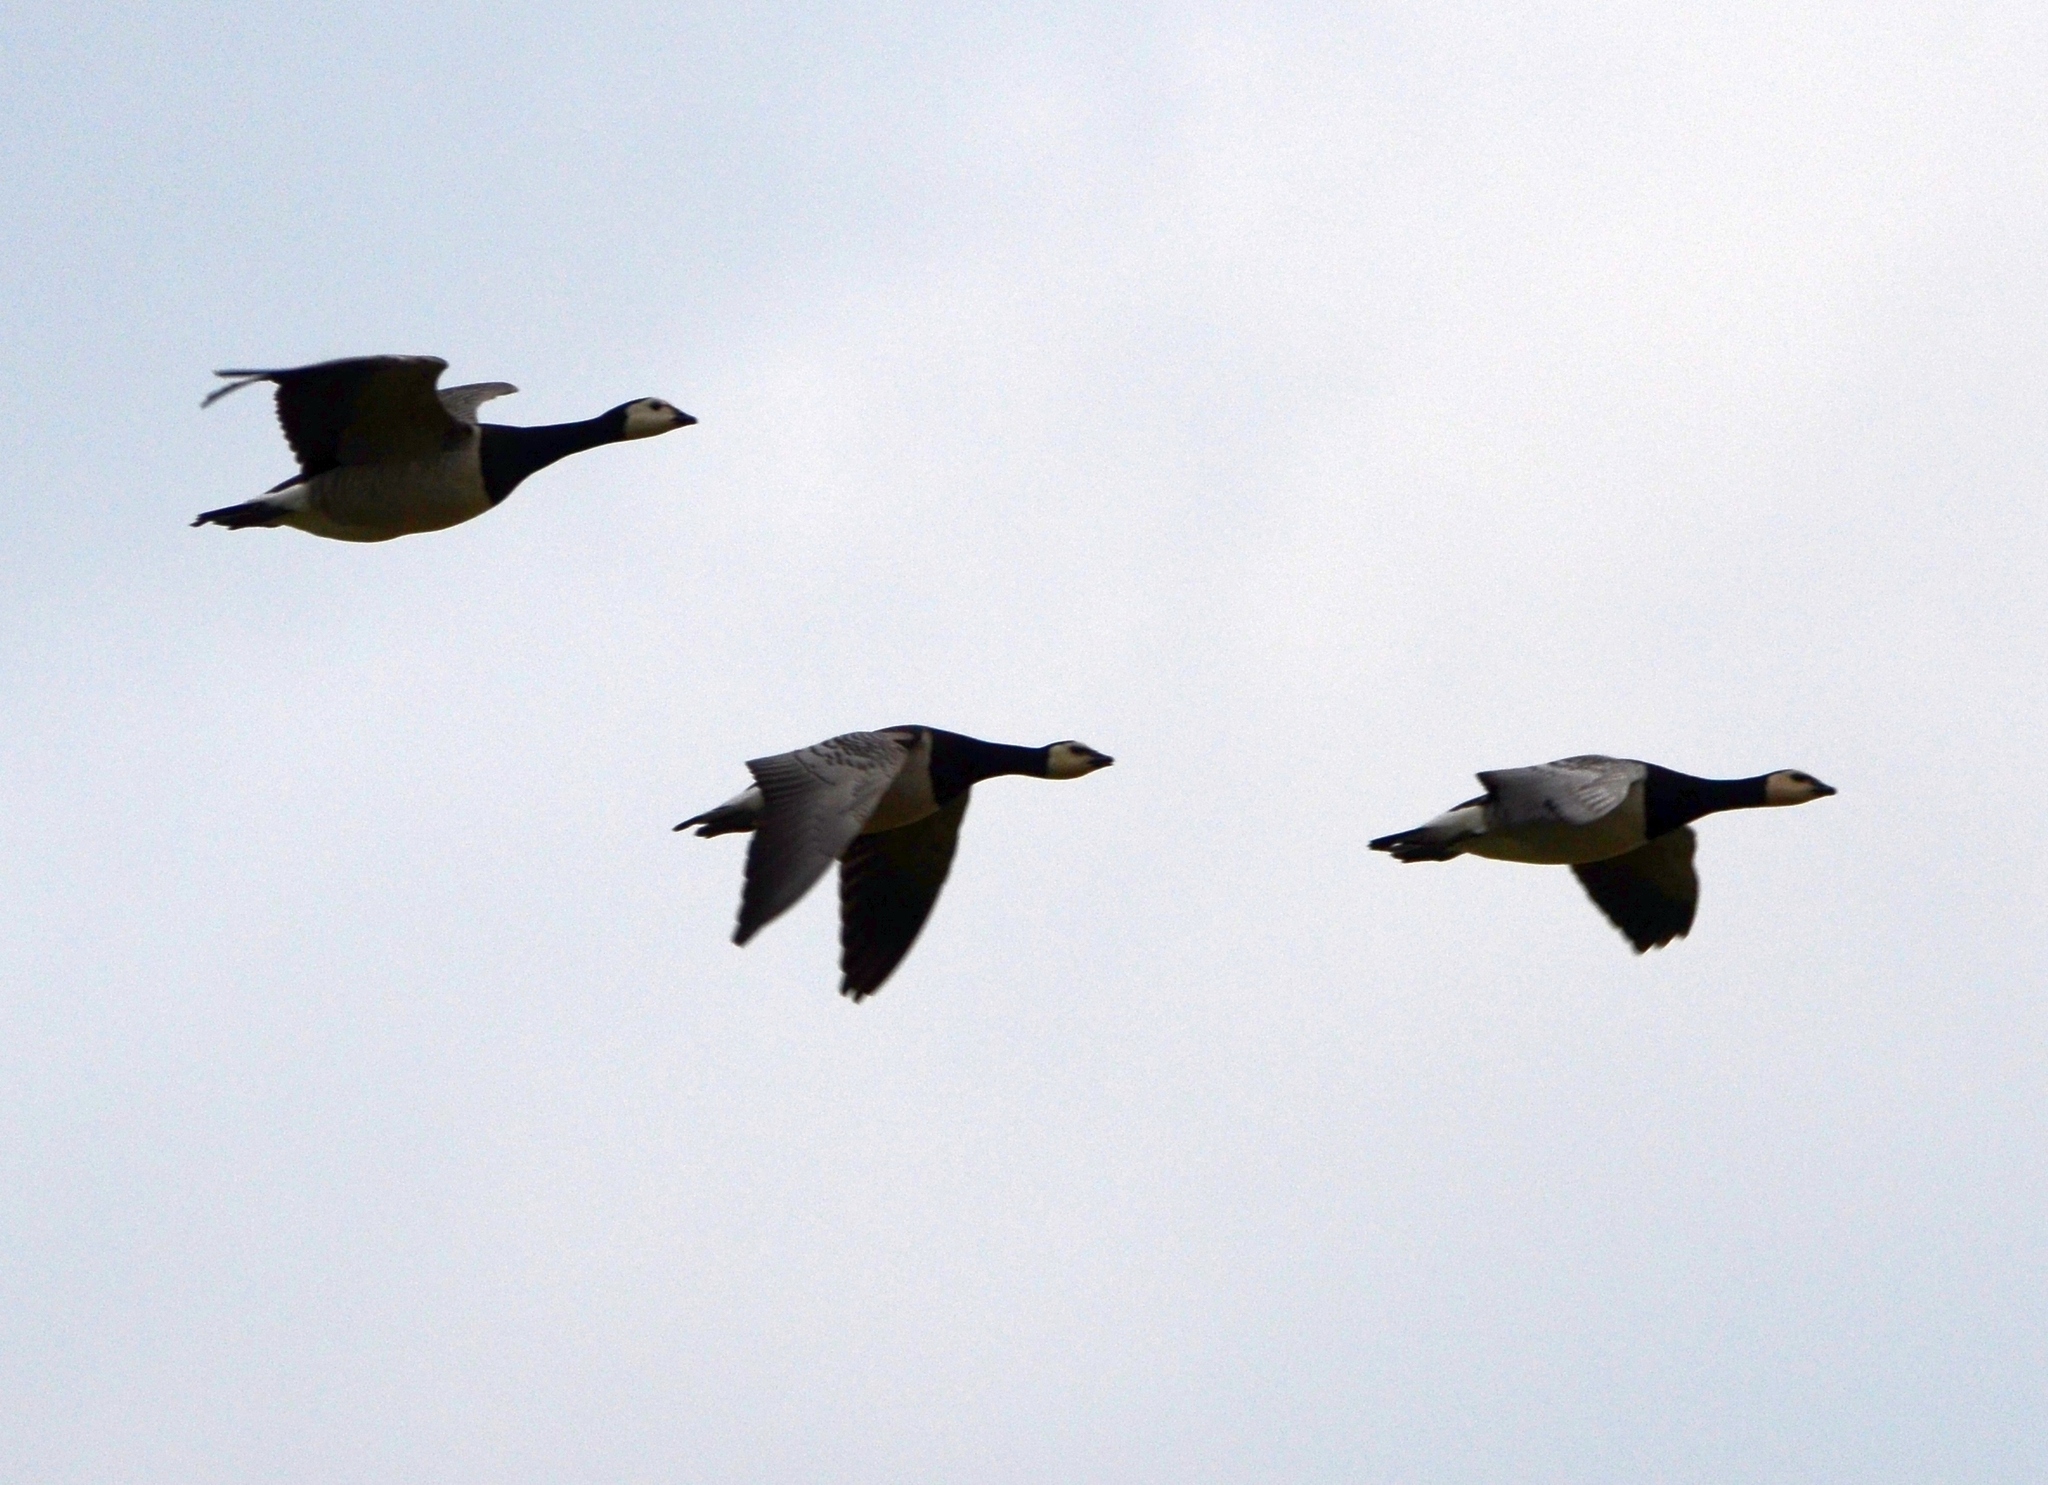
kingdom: Animalia
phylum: Chordata
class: Aves
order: Anseriformes
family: Anatidae
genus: Branta
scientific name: Branta leucopsis
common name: Barnacle goose
